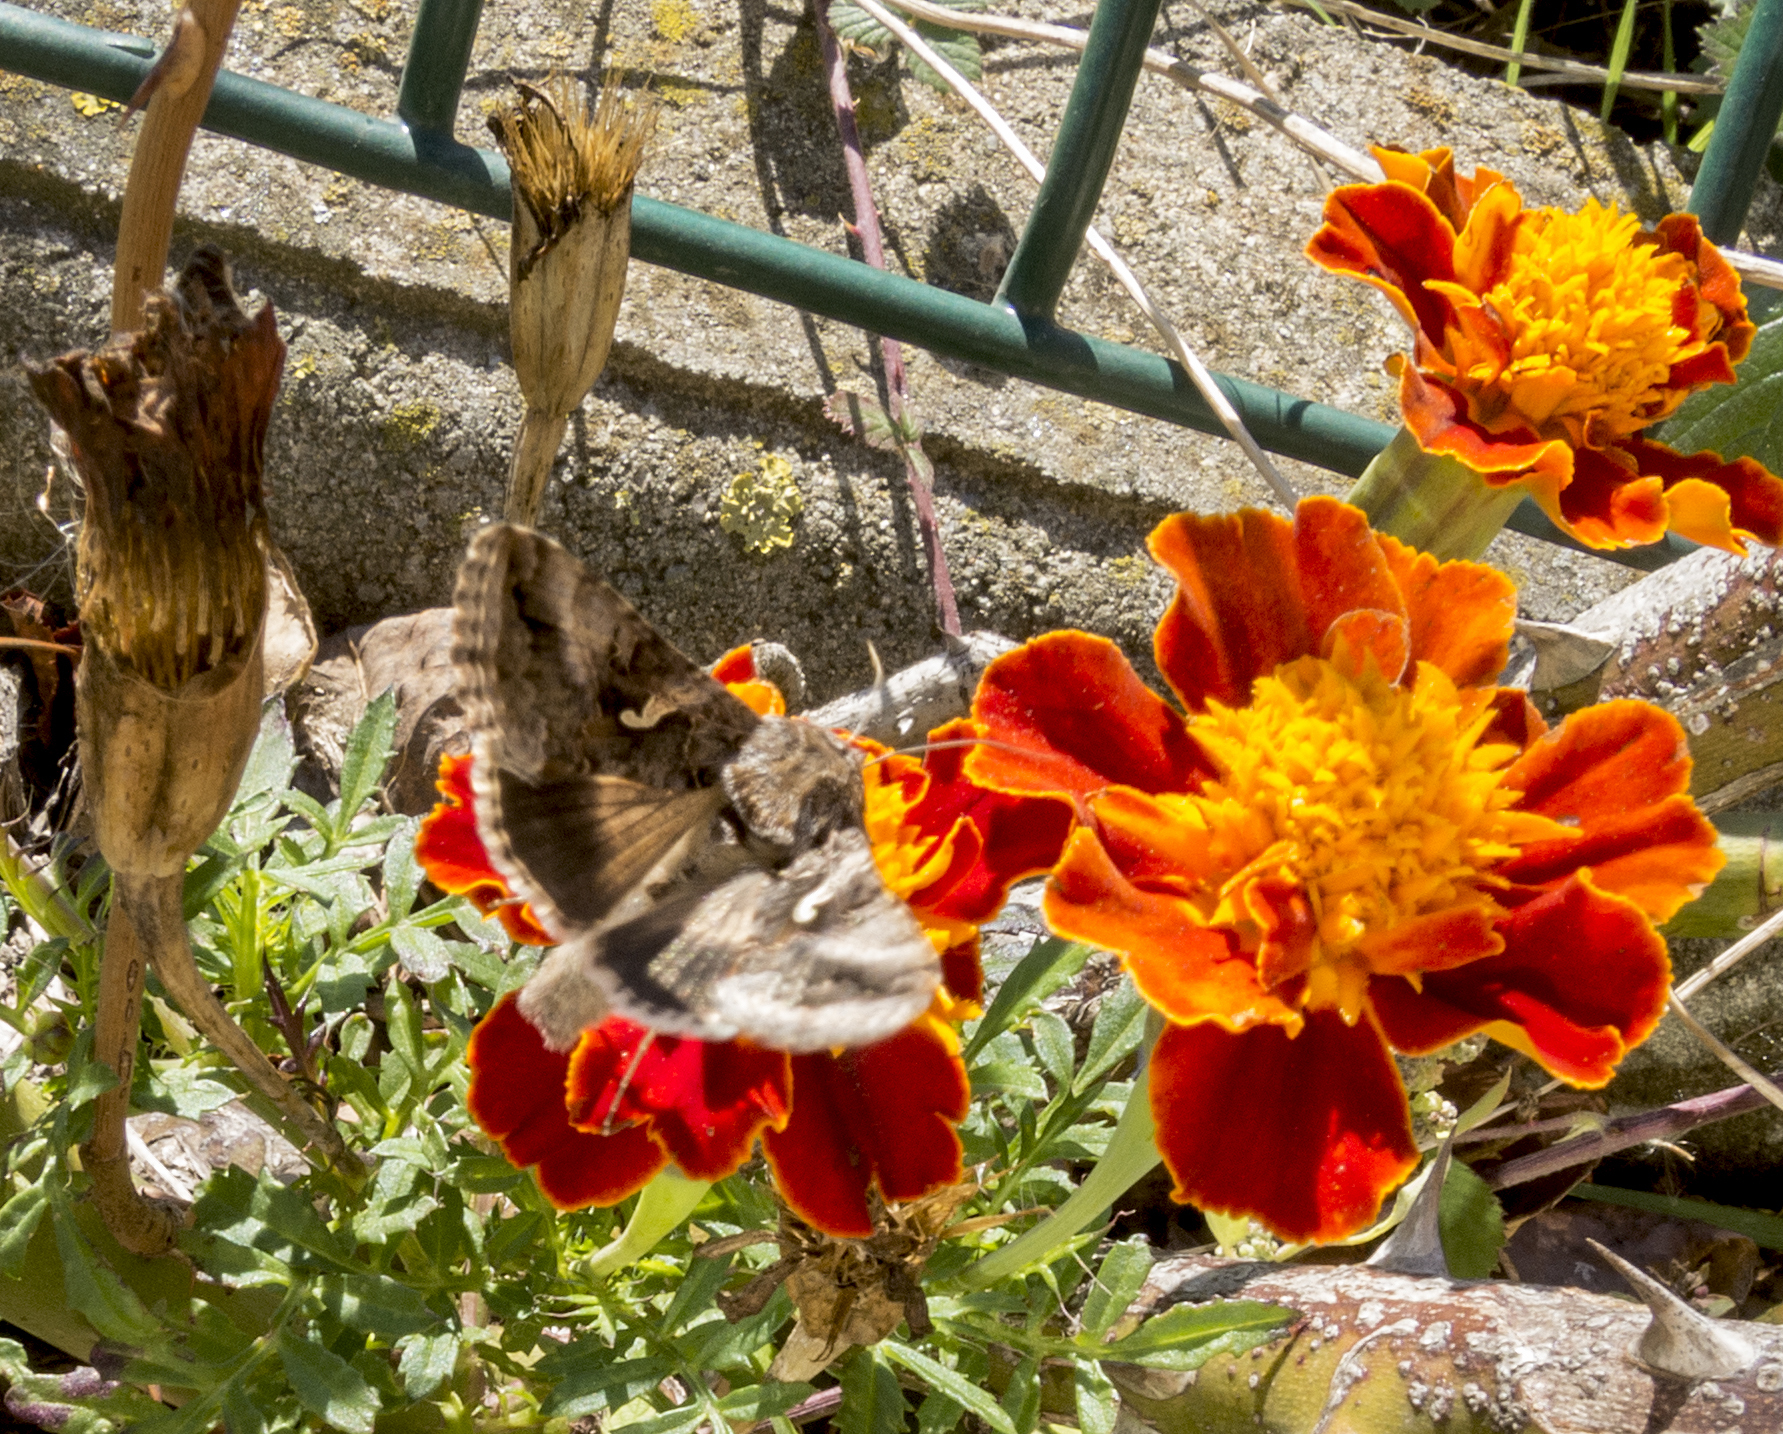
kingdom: Animalia
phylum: Arthropoda
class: Insecta
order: Lepidoptera
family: Noctuidae
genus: Autographa
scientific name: Autographa gamma
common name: Silver y
